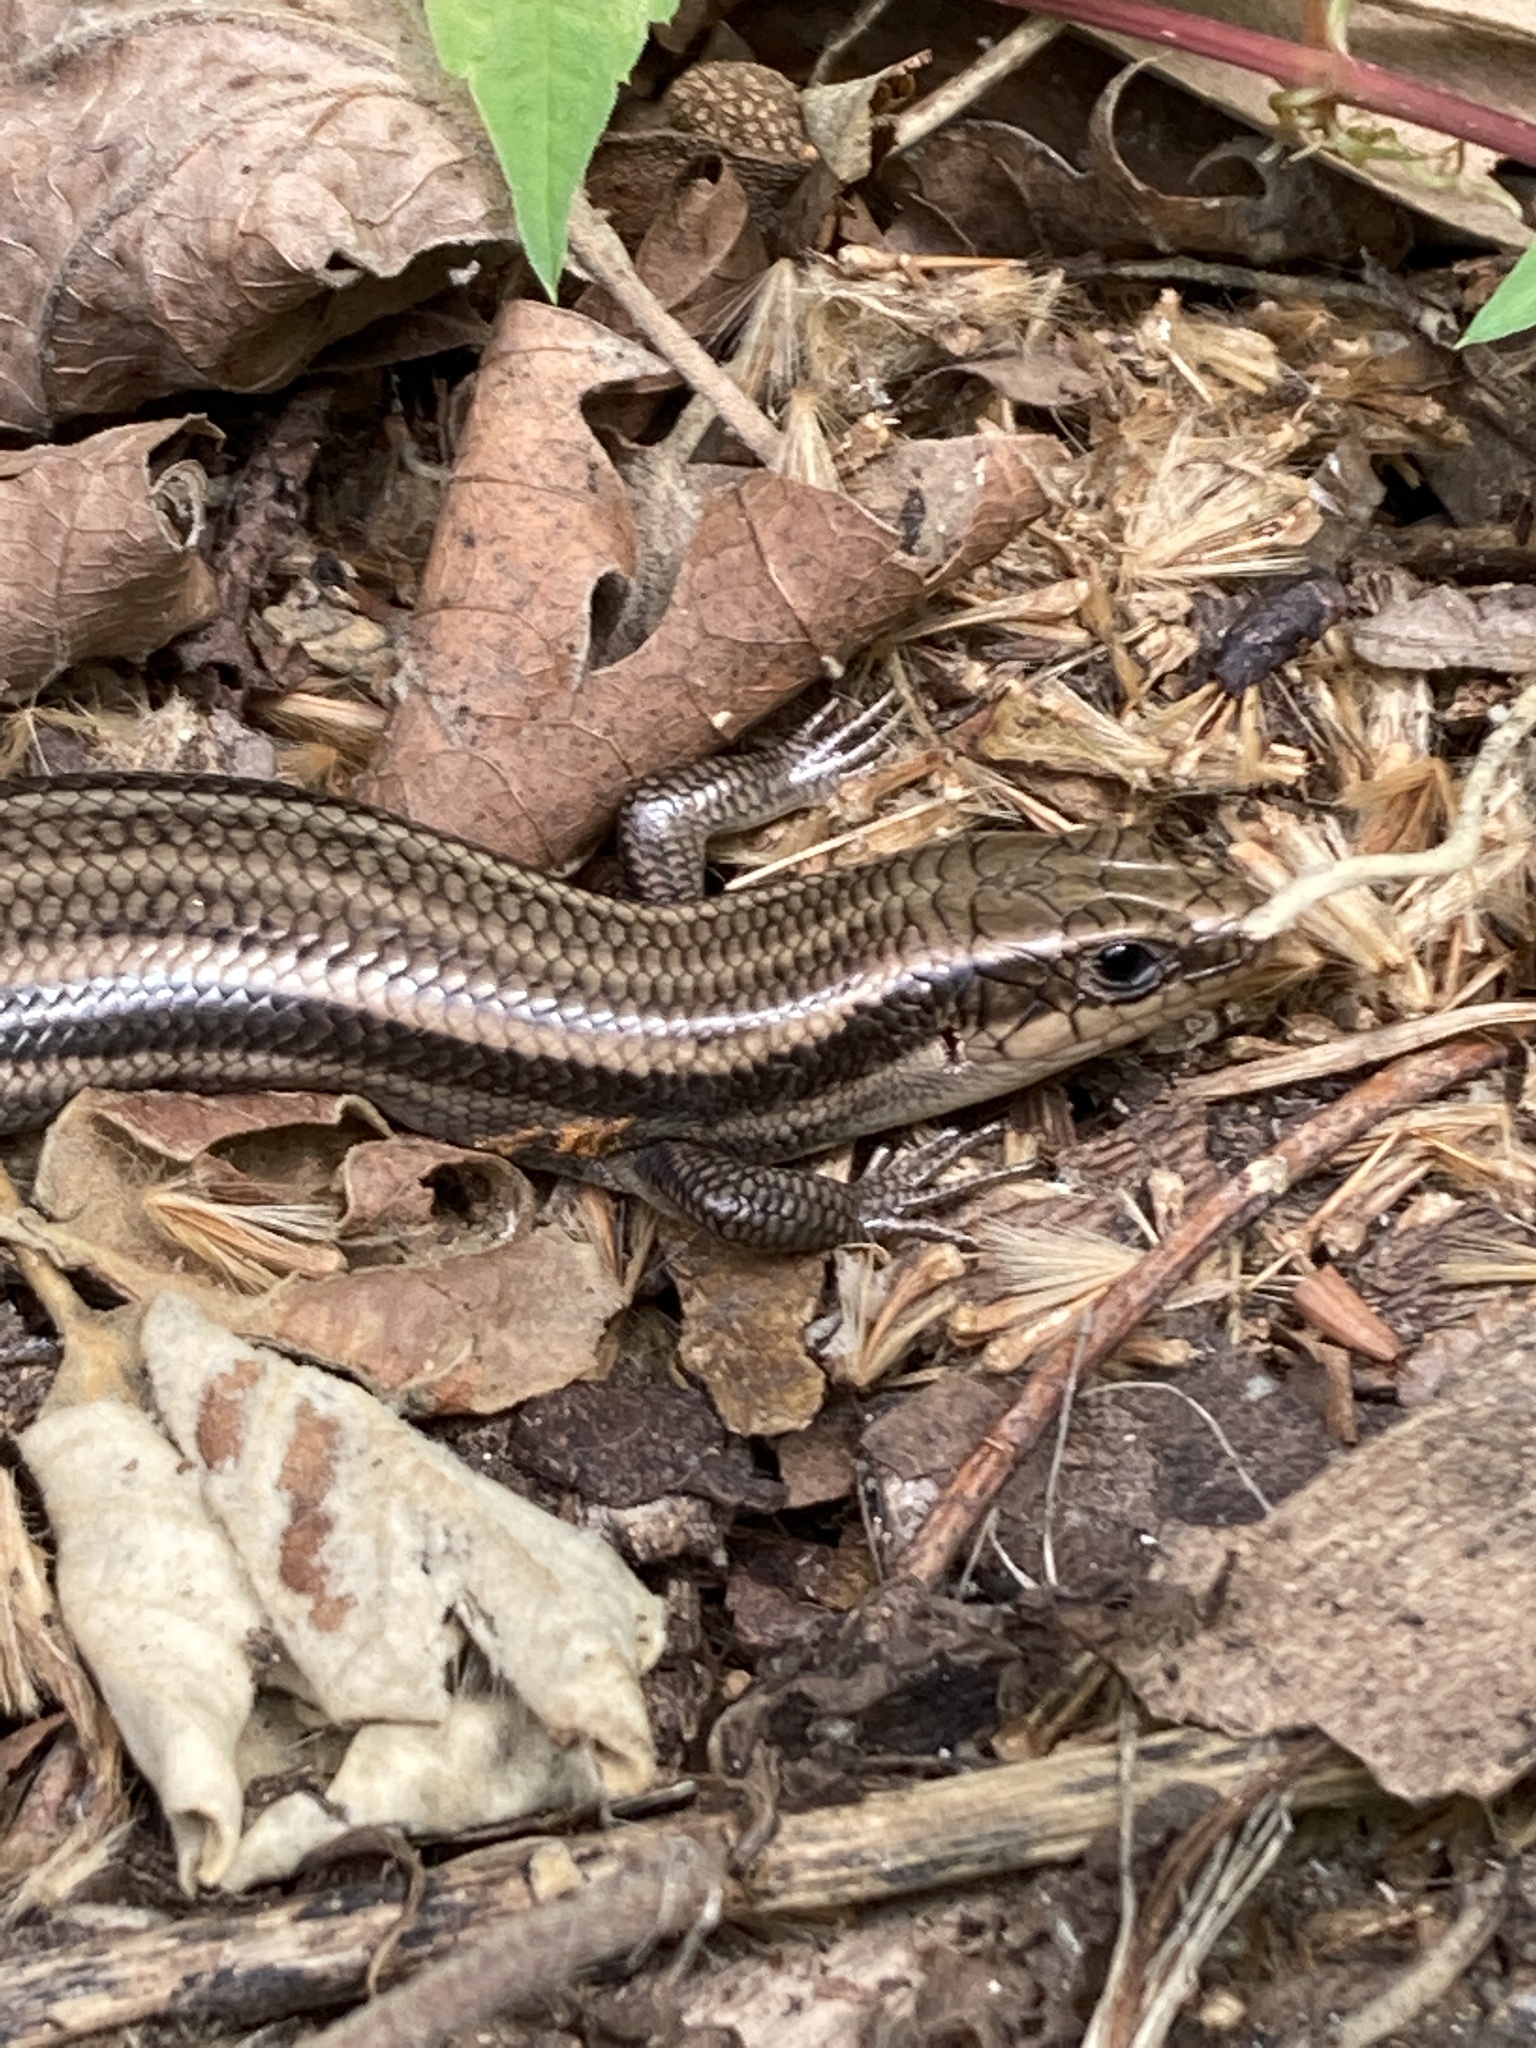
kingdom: Animalia
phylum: Chordata
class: Squamata
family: Scincidae
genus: Plestiodon
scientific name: Plestiodon fasciatus
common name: Five-lined skink
